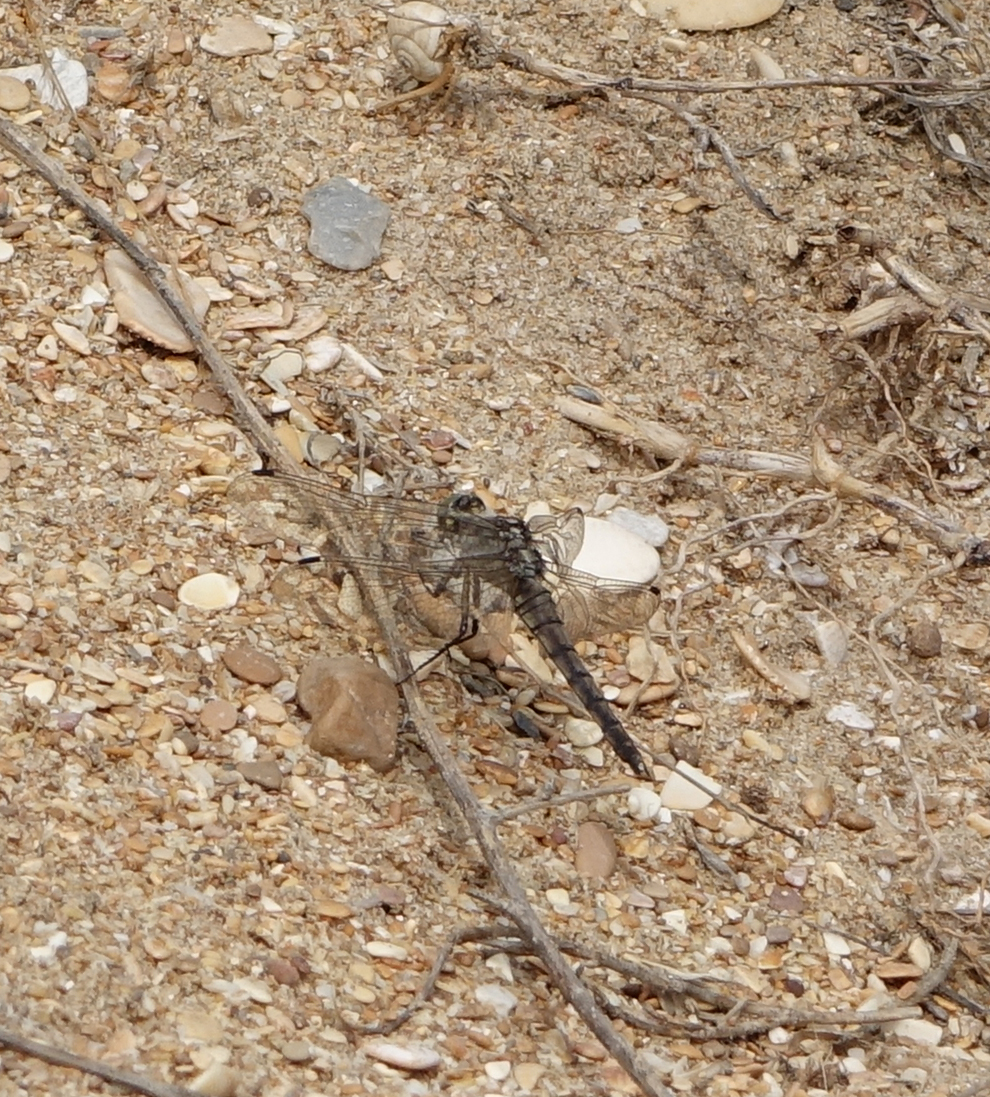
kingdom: Animalia
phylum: Arthropoda
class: Insecta
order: Odonata
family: Libellulidae
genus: Orthetrum
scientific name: Orthetrum cancellatum
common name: Black-tailed skimmer
